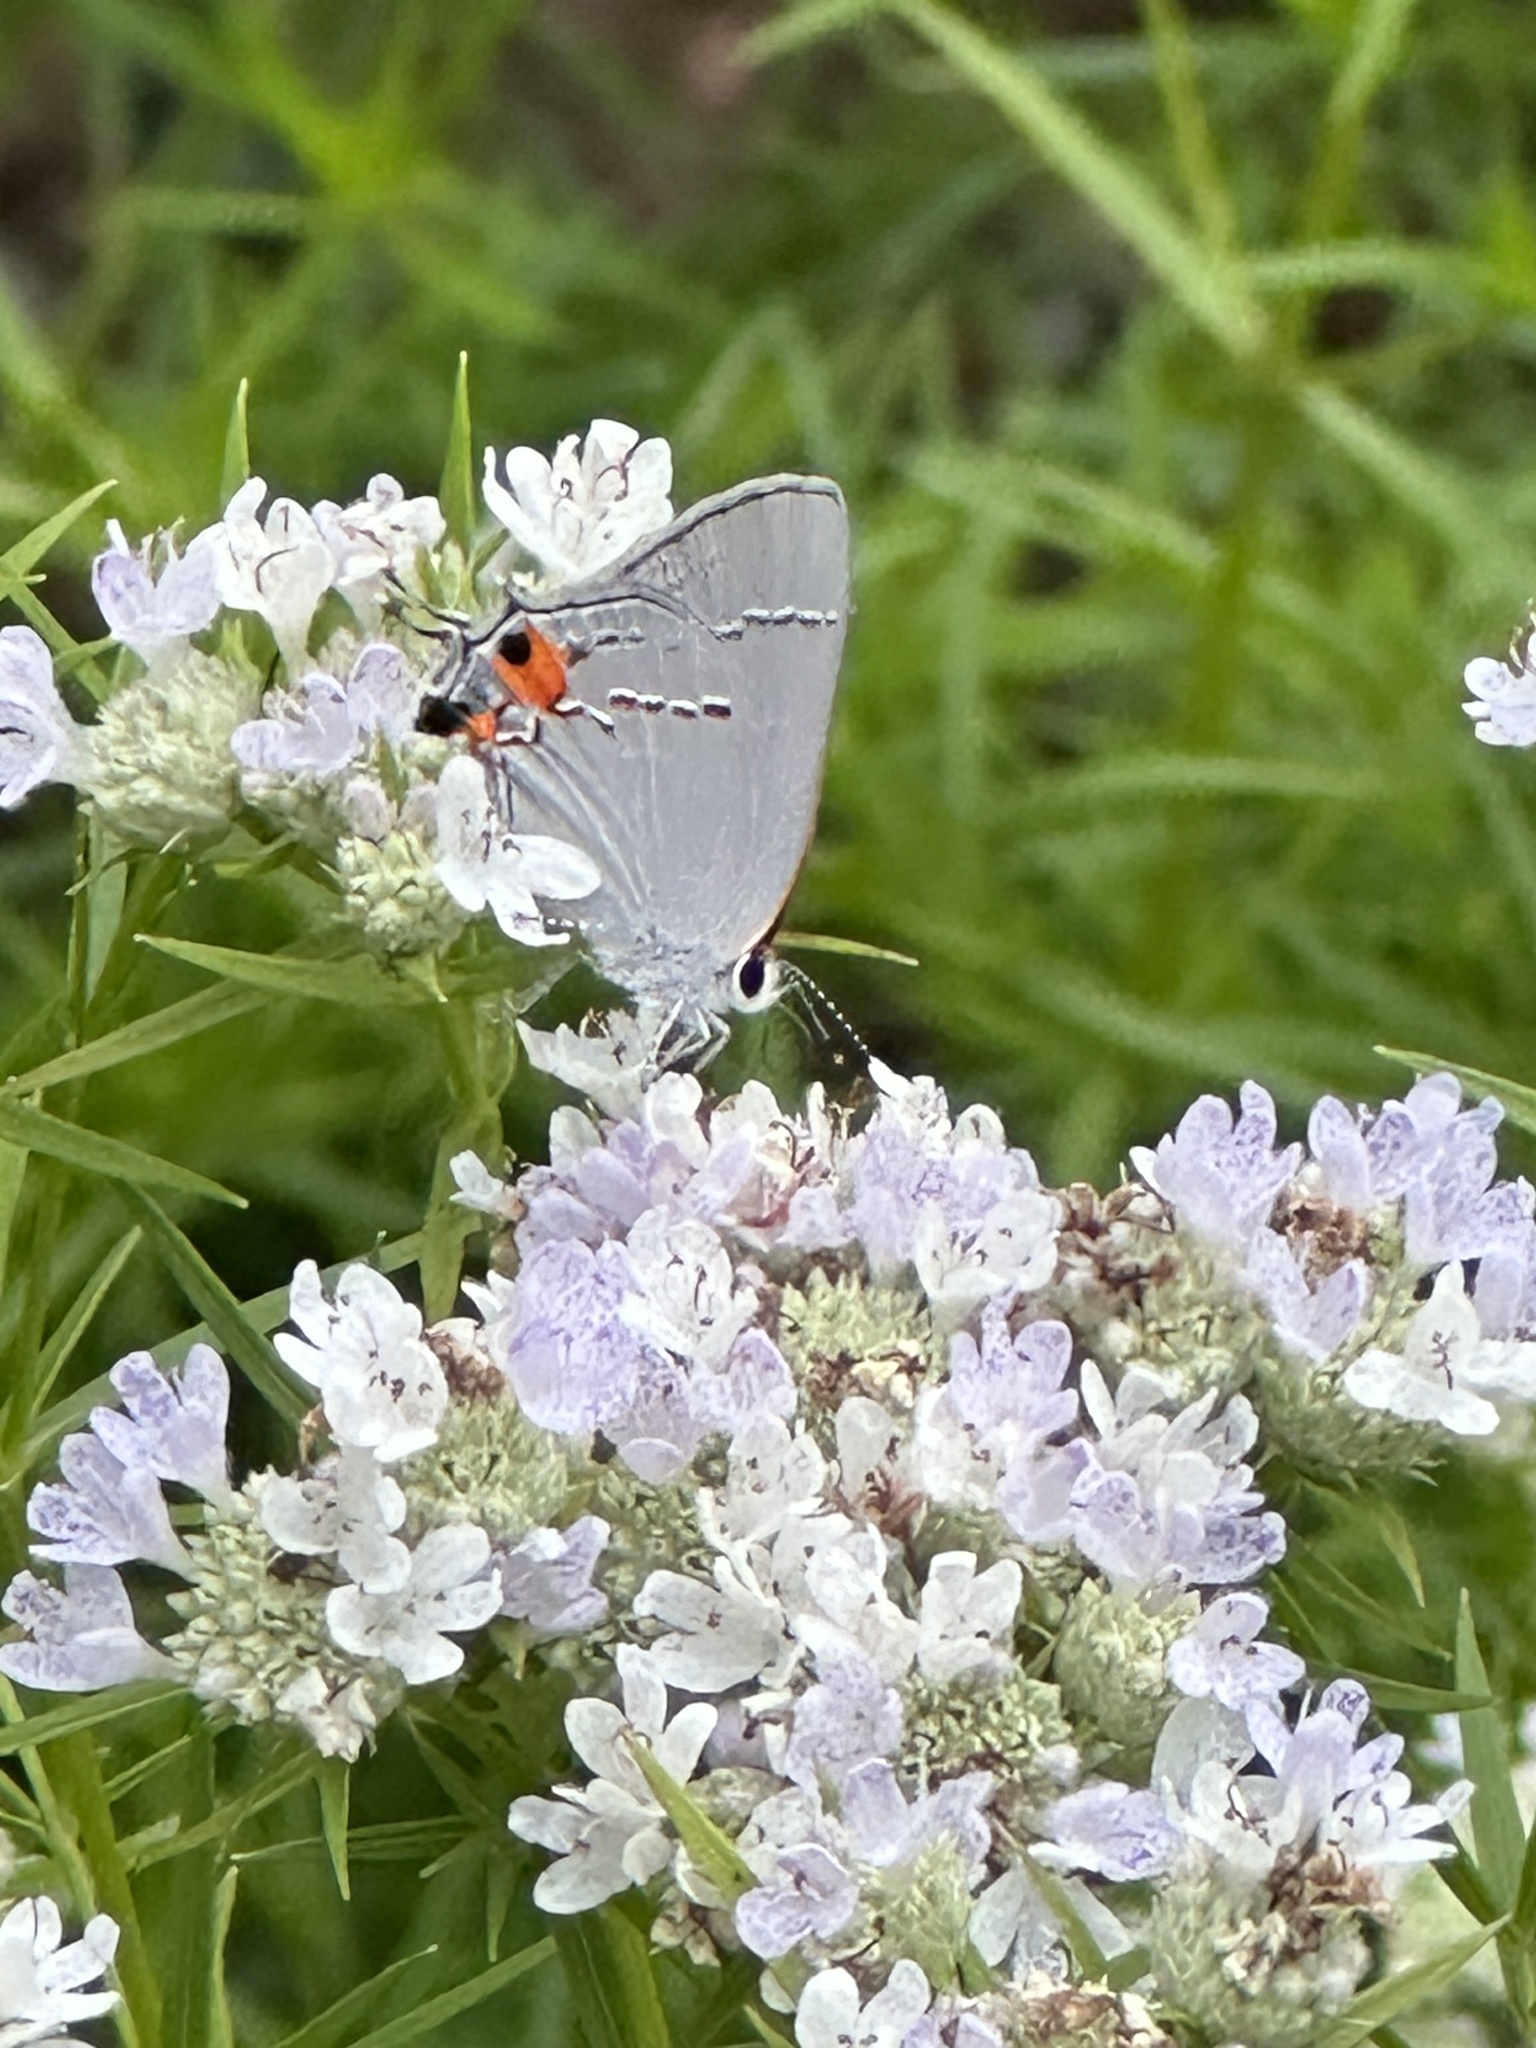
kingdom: Animalia
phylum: Arthropoda
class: Insecta
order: Lepidoptera
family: Lycaenidae
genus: Strymon
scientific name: Strymon melinus
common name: Gray hairstreak
